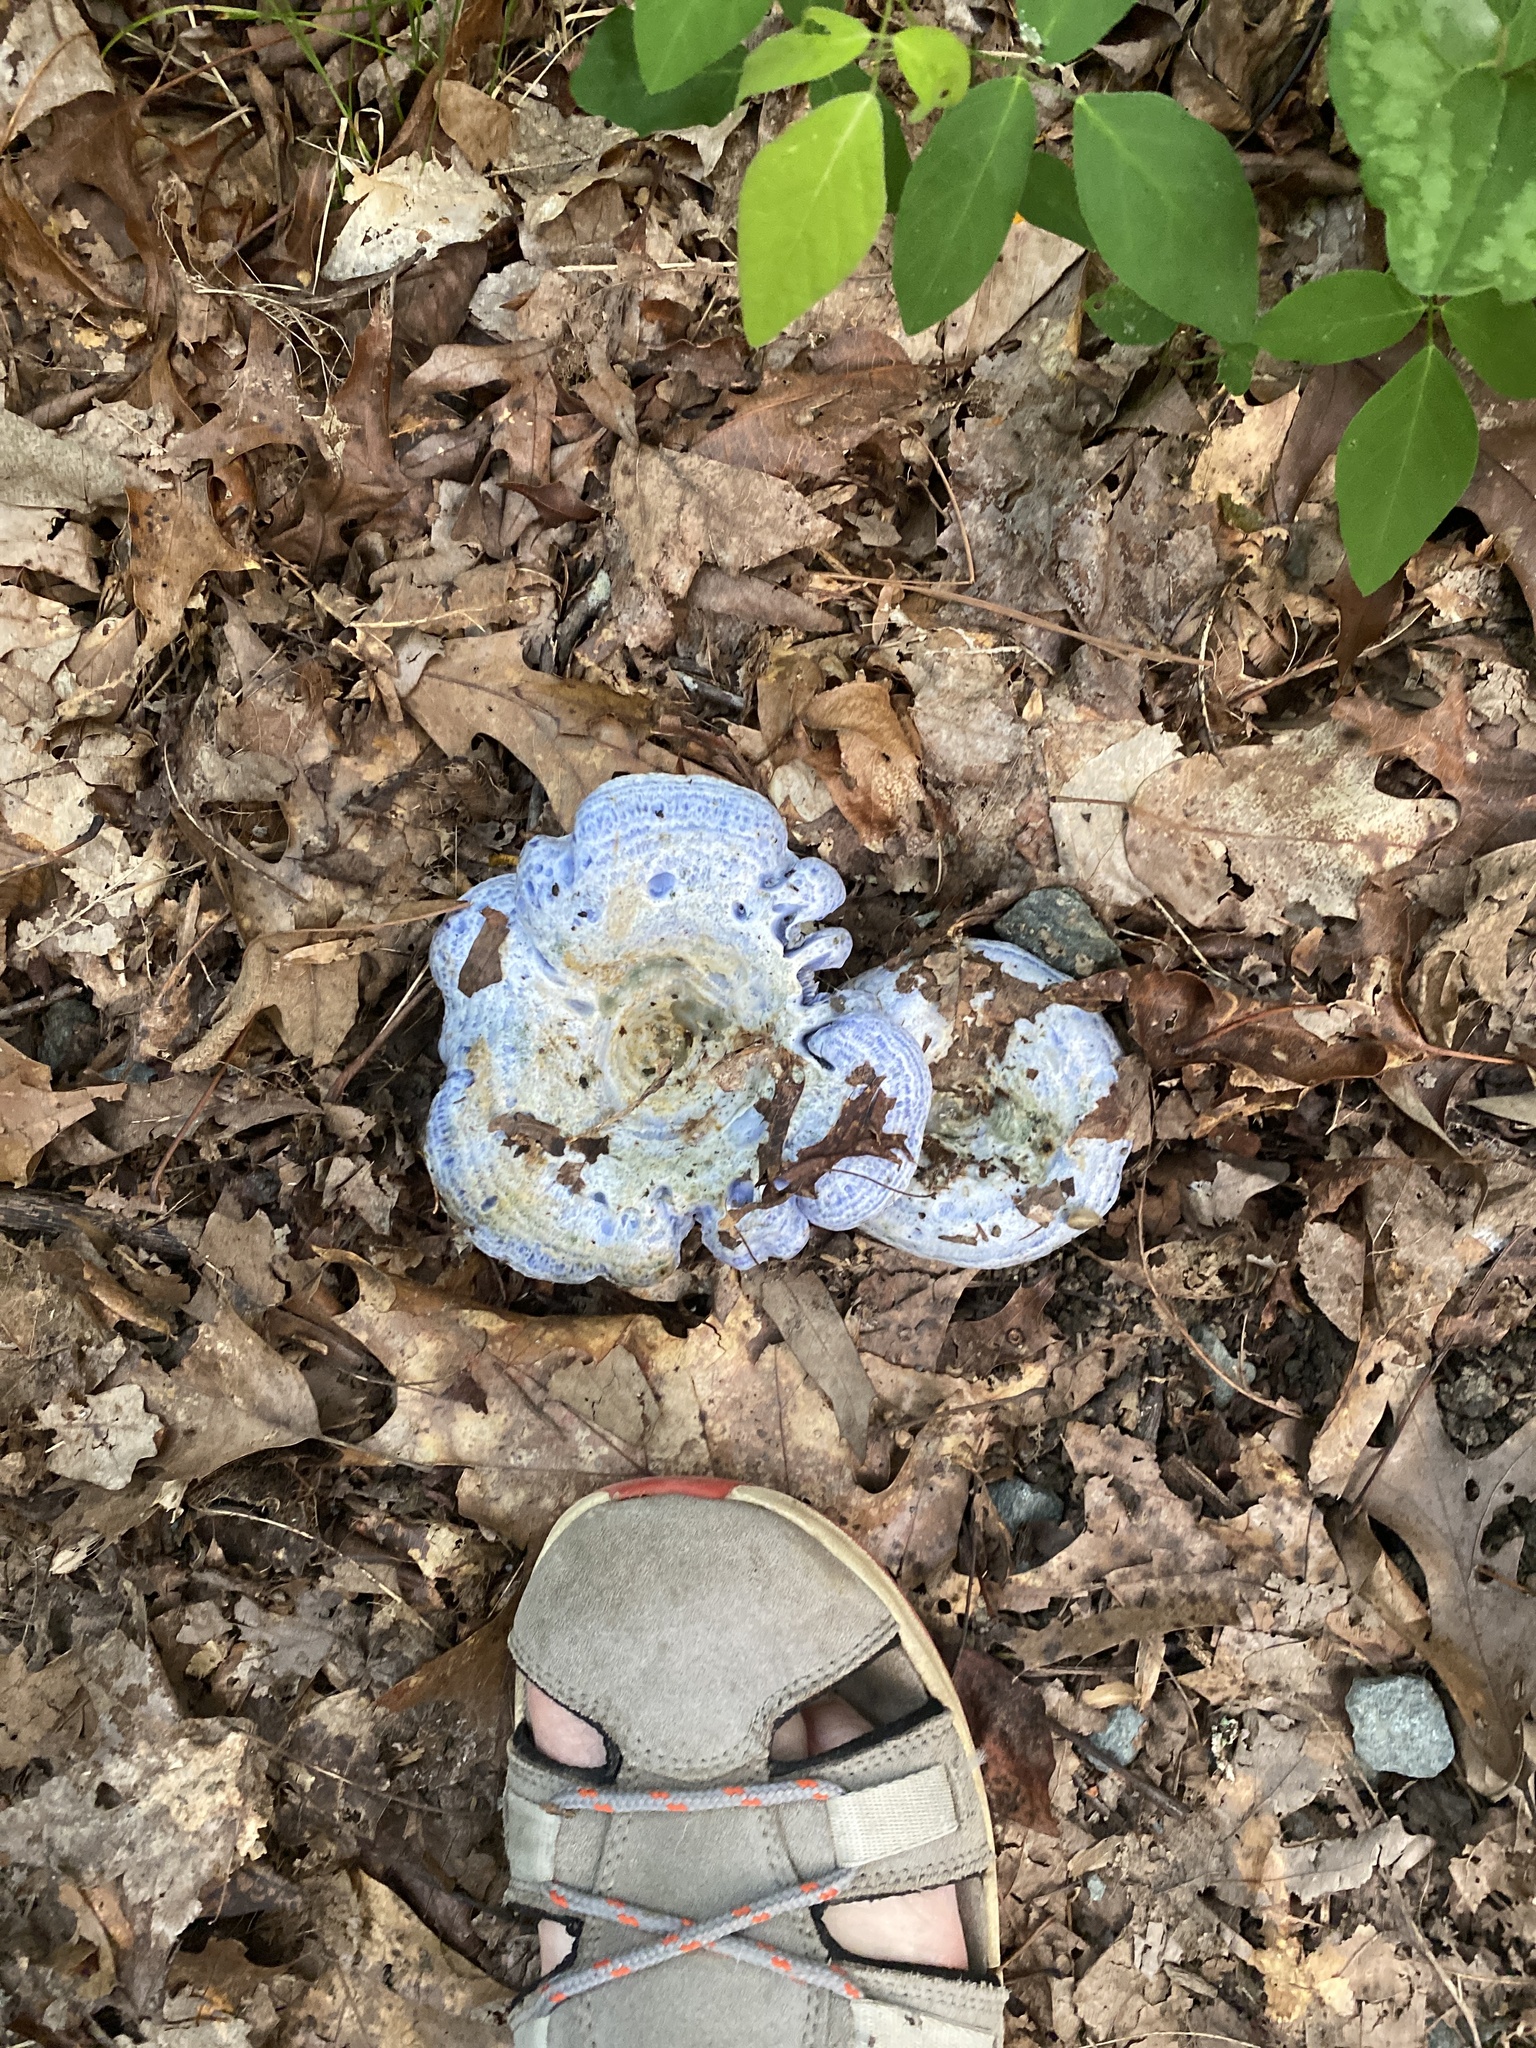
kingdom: Fungi
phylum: Basidiomycota
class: Agaricomycetes
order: Russulales
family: Russulaceae
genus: Lactarius
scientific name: Lactarius indigo
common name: Indigo milk cap
